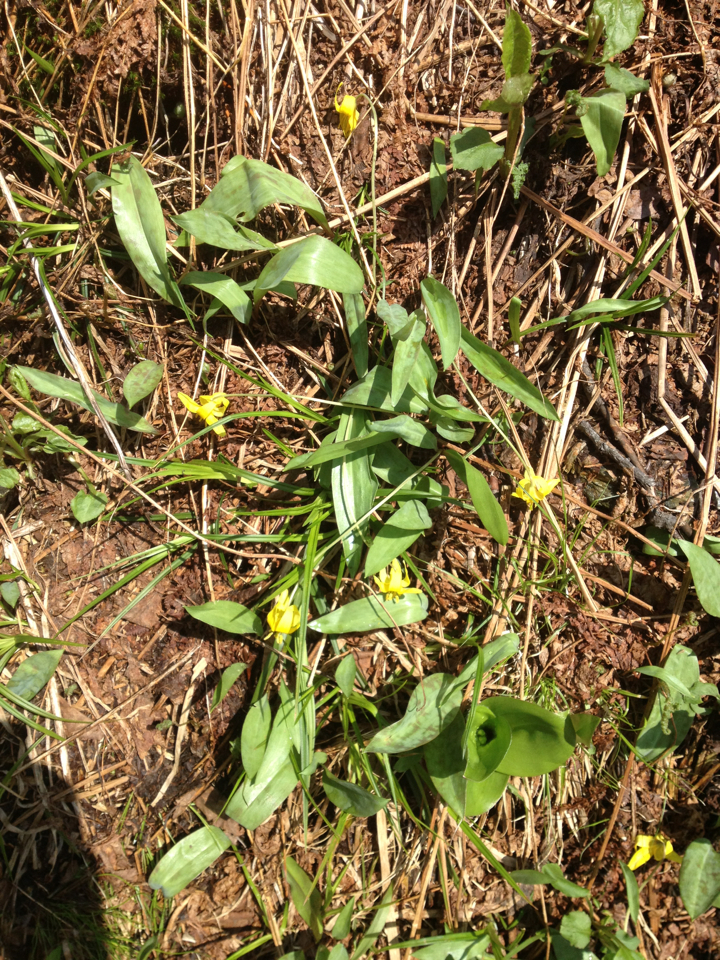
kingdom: Plantae
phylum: Tracheophyta
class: Liliopsida
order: Liliales
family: Liliaceae
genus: Erythronium
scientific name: Erythronium americanum
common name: Yellow adder's-tongue
